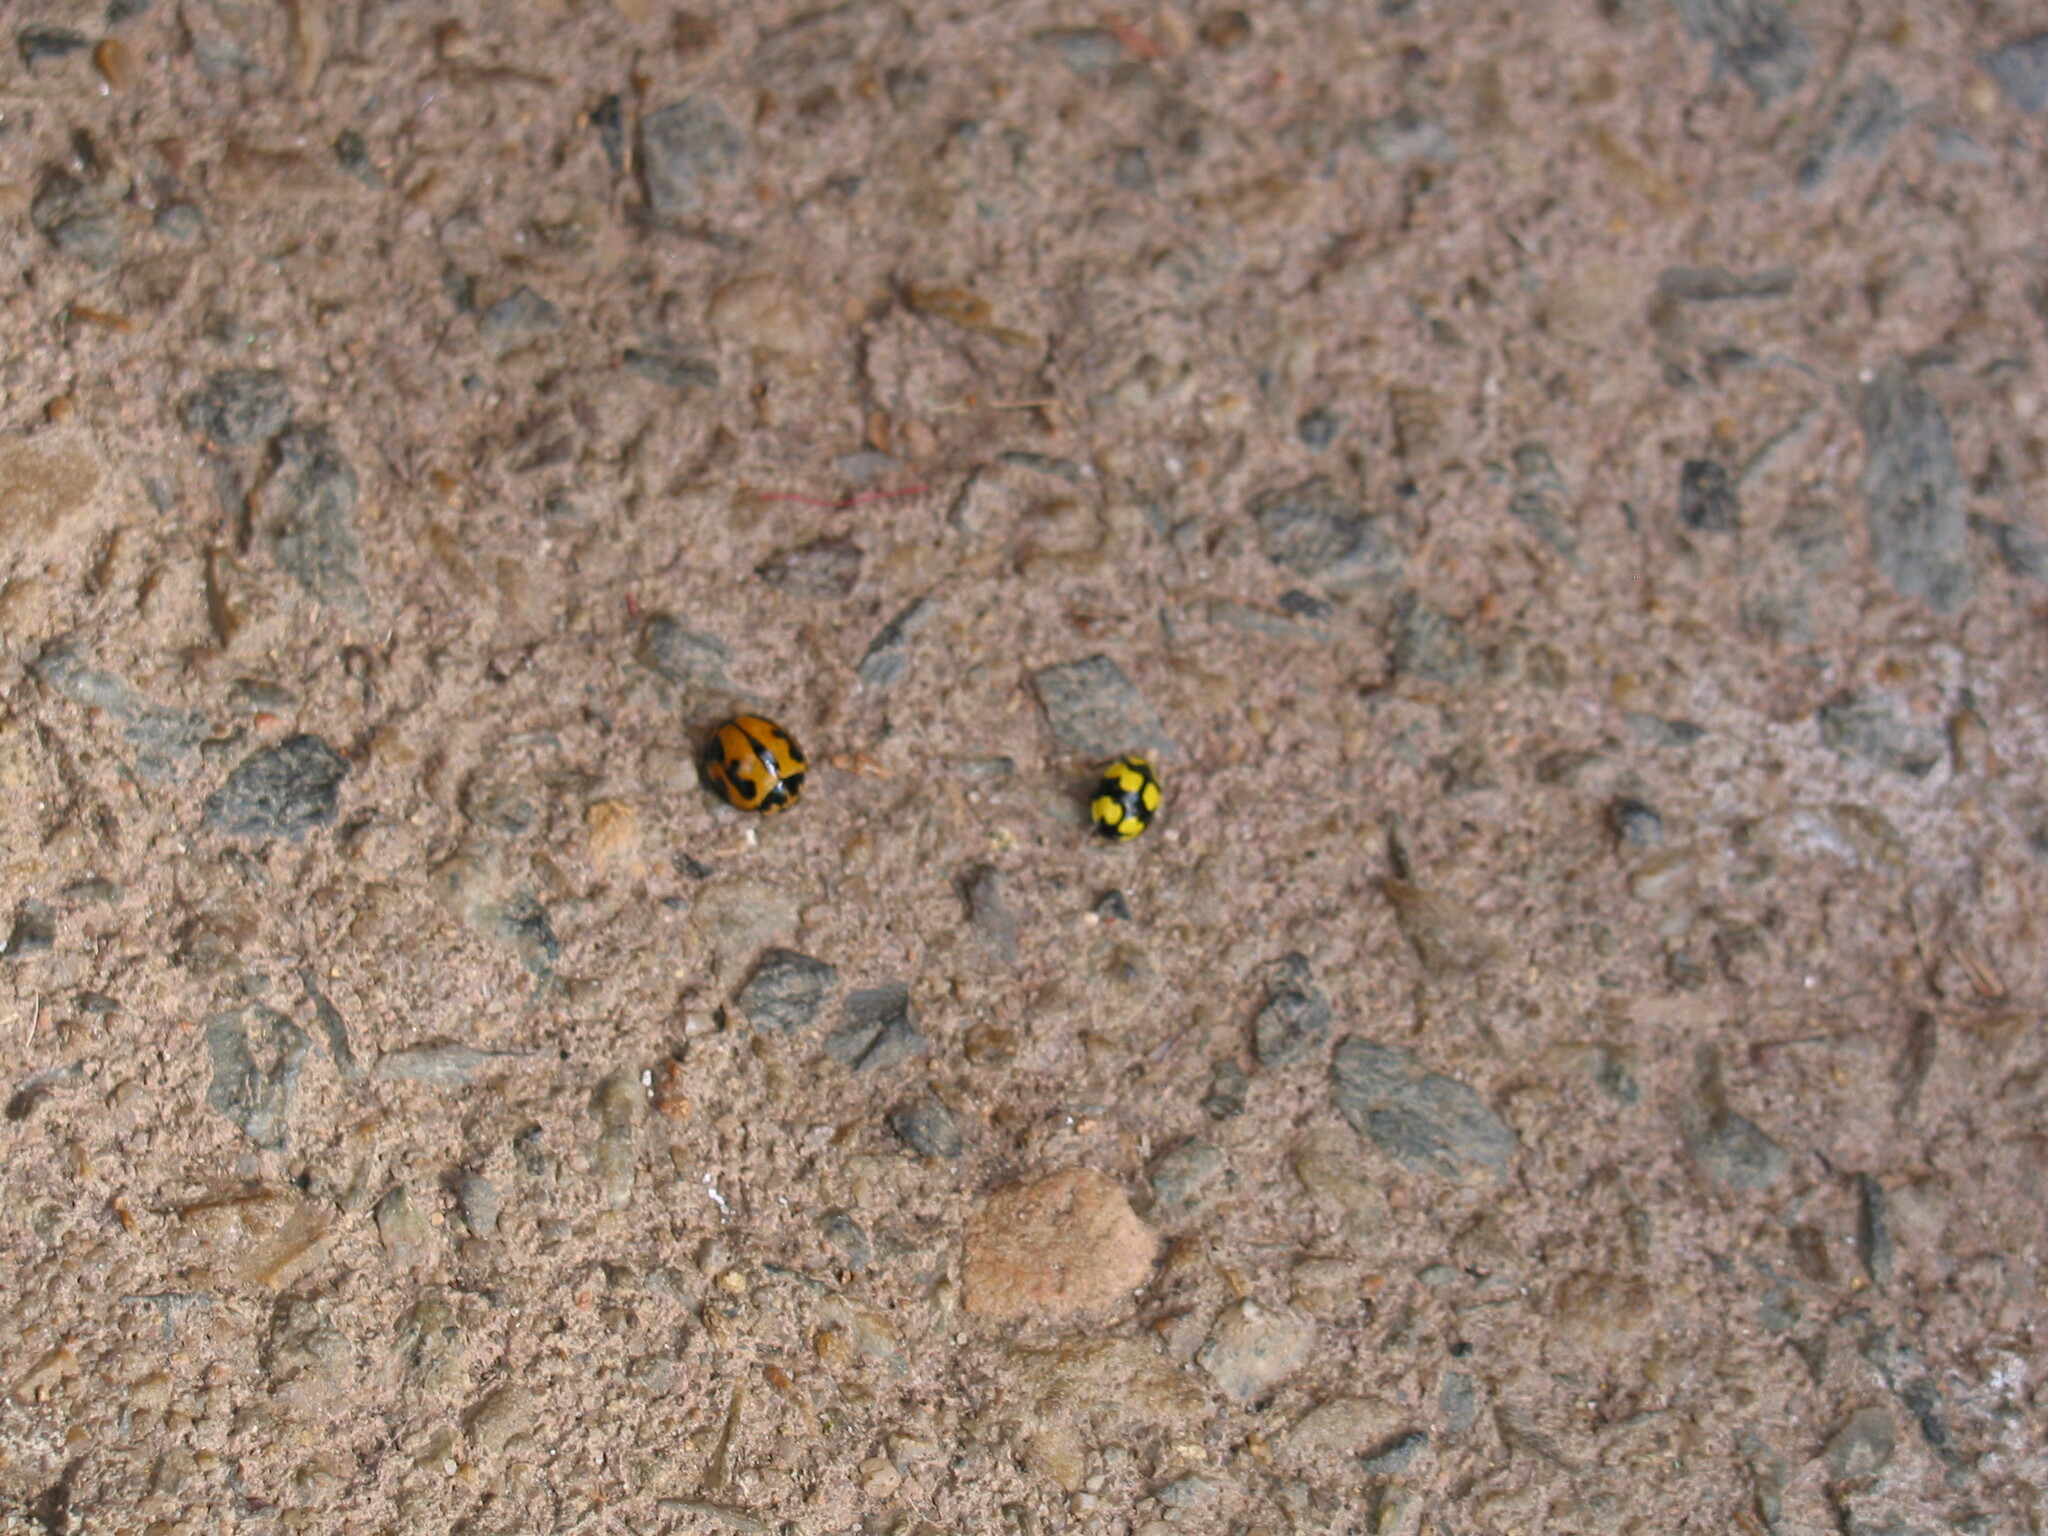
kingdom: Animalia
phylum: Arthropoda
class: Insecta
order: Coleoptera
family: Coccinellidae
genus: Coelophora
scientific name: Coelophora inaequalis
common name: Common australian lady beetle
